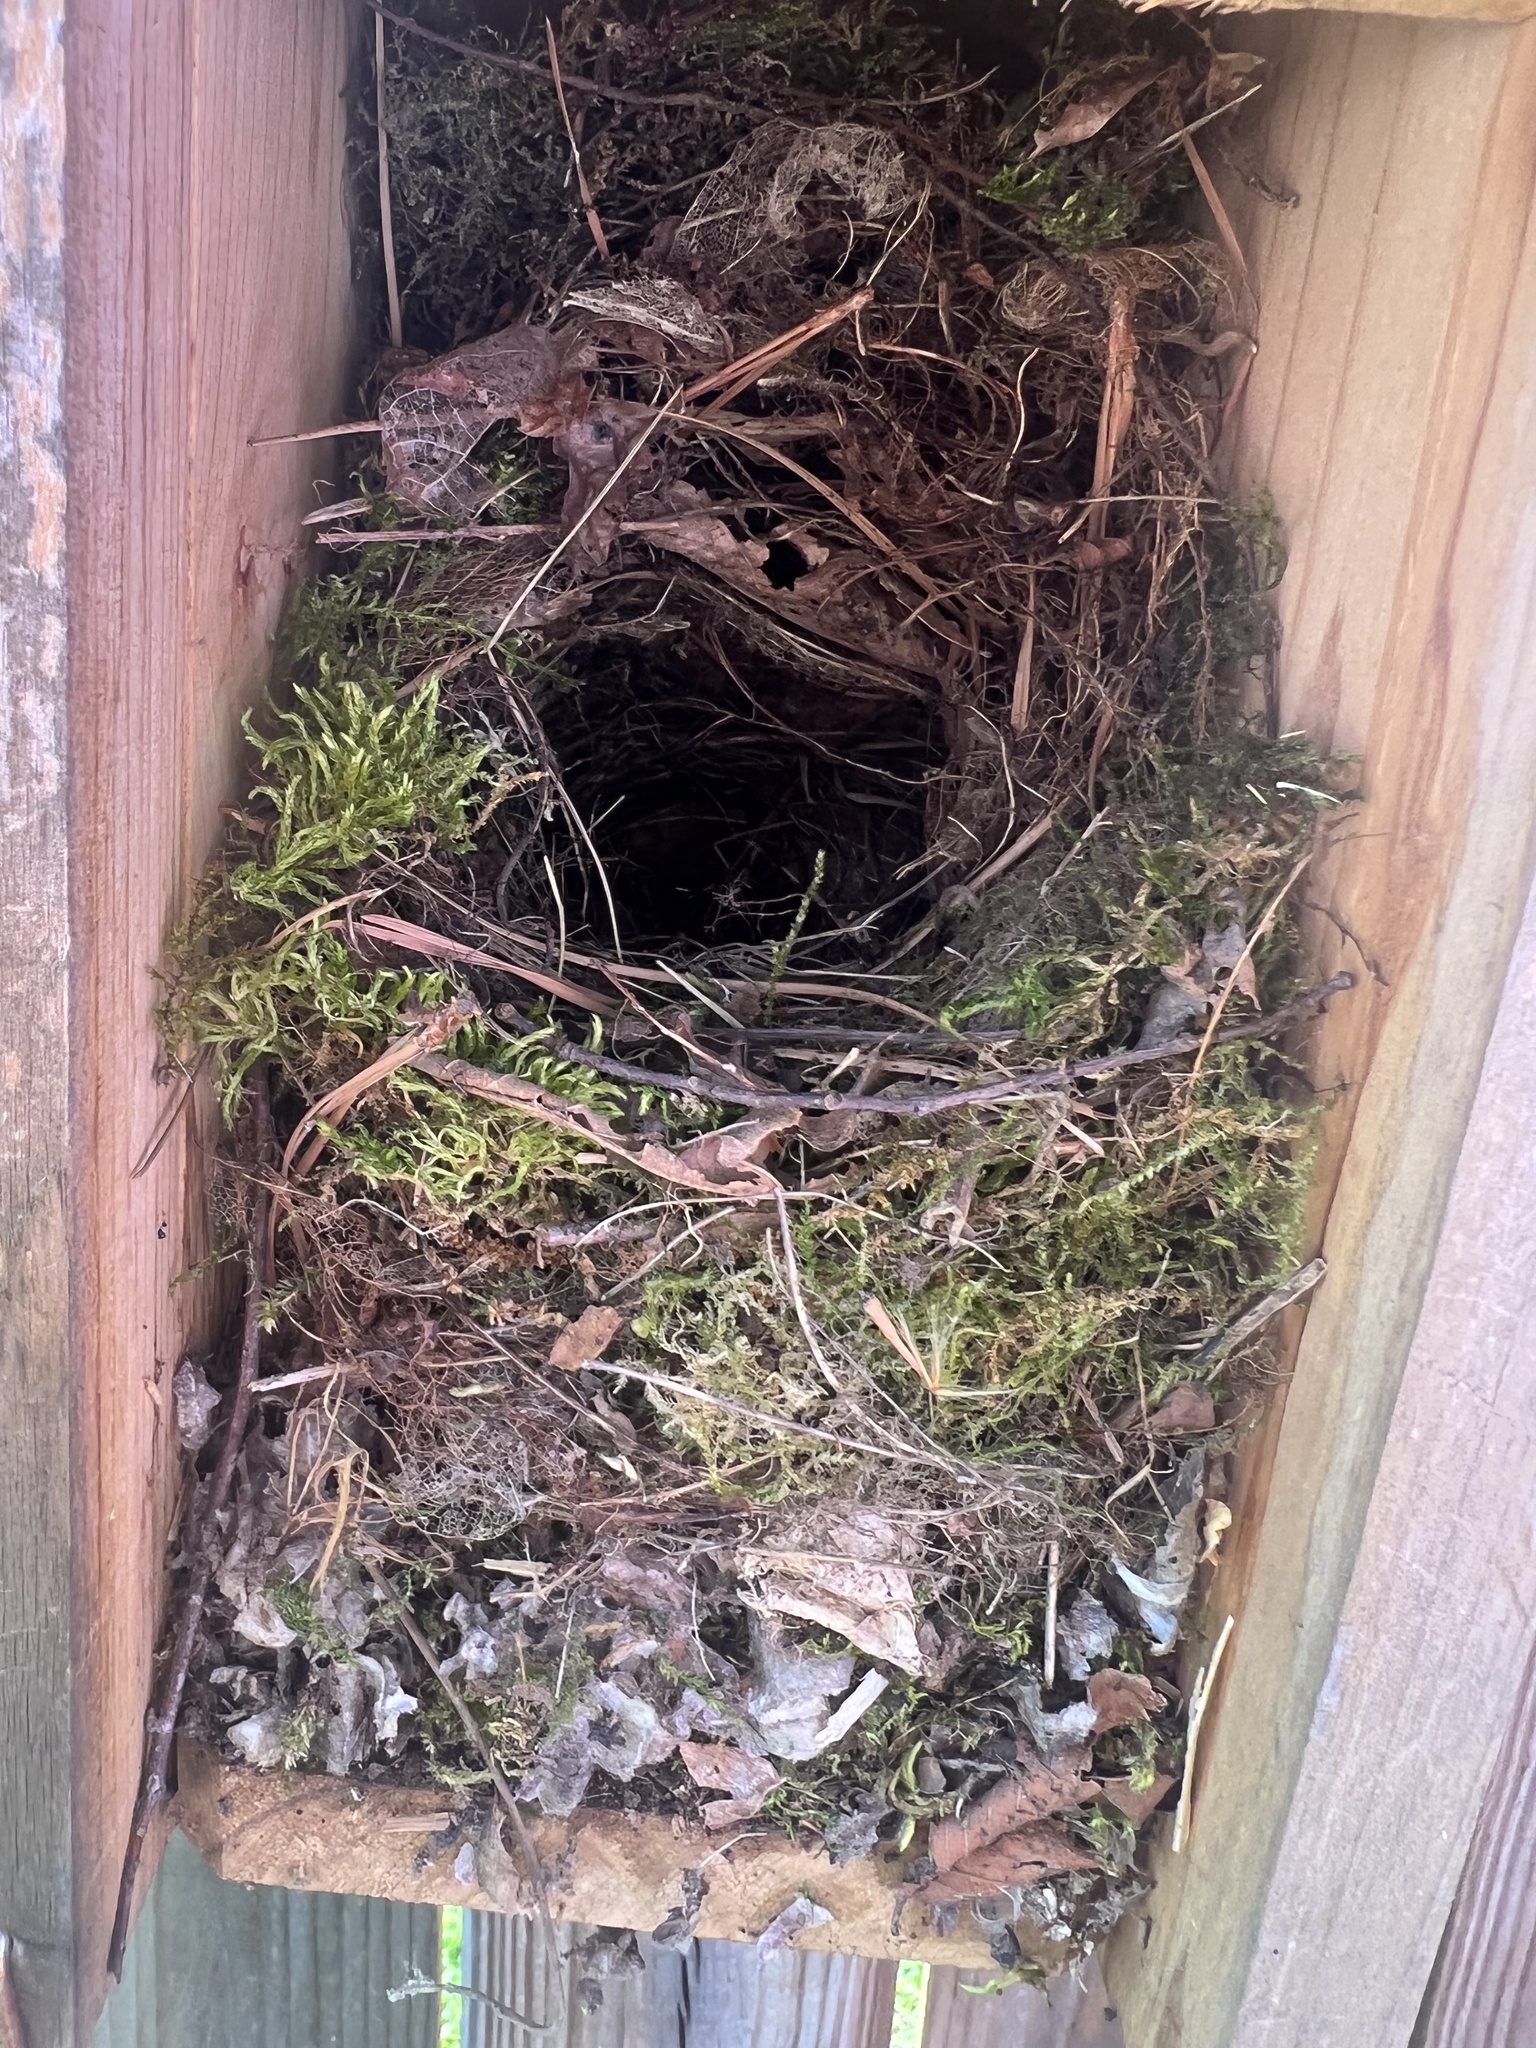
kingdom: Animalia
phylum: Chordata
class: Aves
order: Passeriformes
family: Troglodytidae
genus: Thryothorus
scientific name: Thryothorus ludovicianus
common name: Carolina wren
